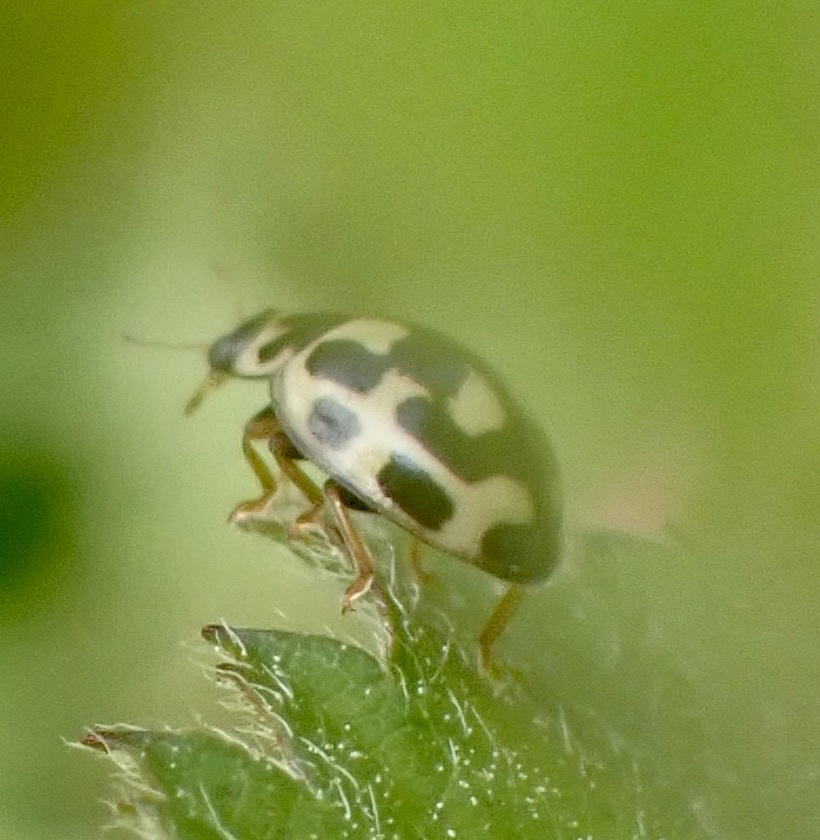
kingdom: Animalia
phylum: Arthropoda
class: Insecta
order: Coleoptera
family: Coccinellidae
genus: Propylaea
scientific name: Propylaea quatuordecimpunctata
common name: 14-spotted ladybird beetle
